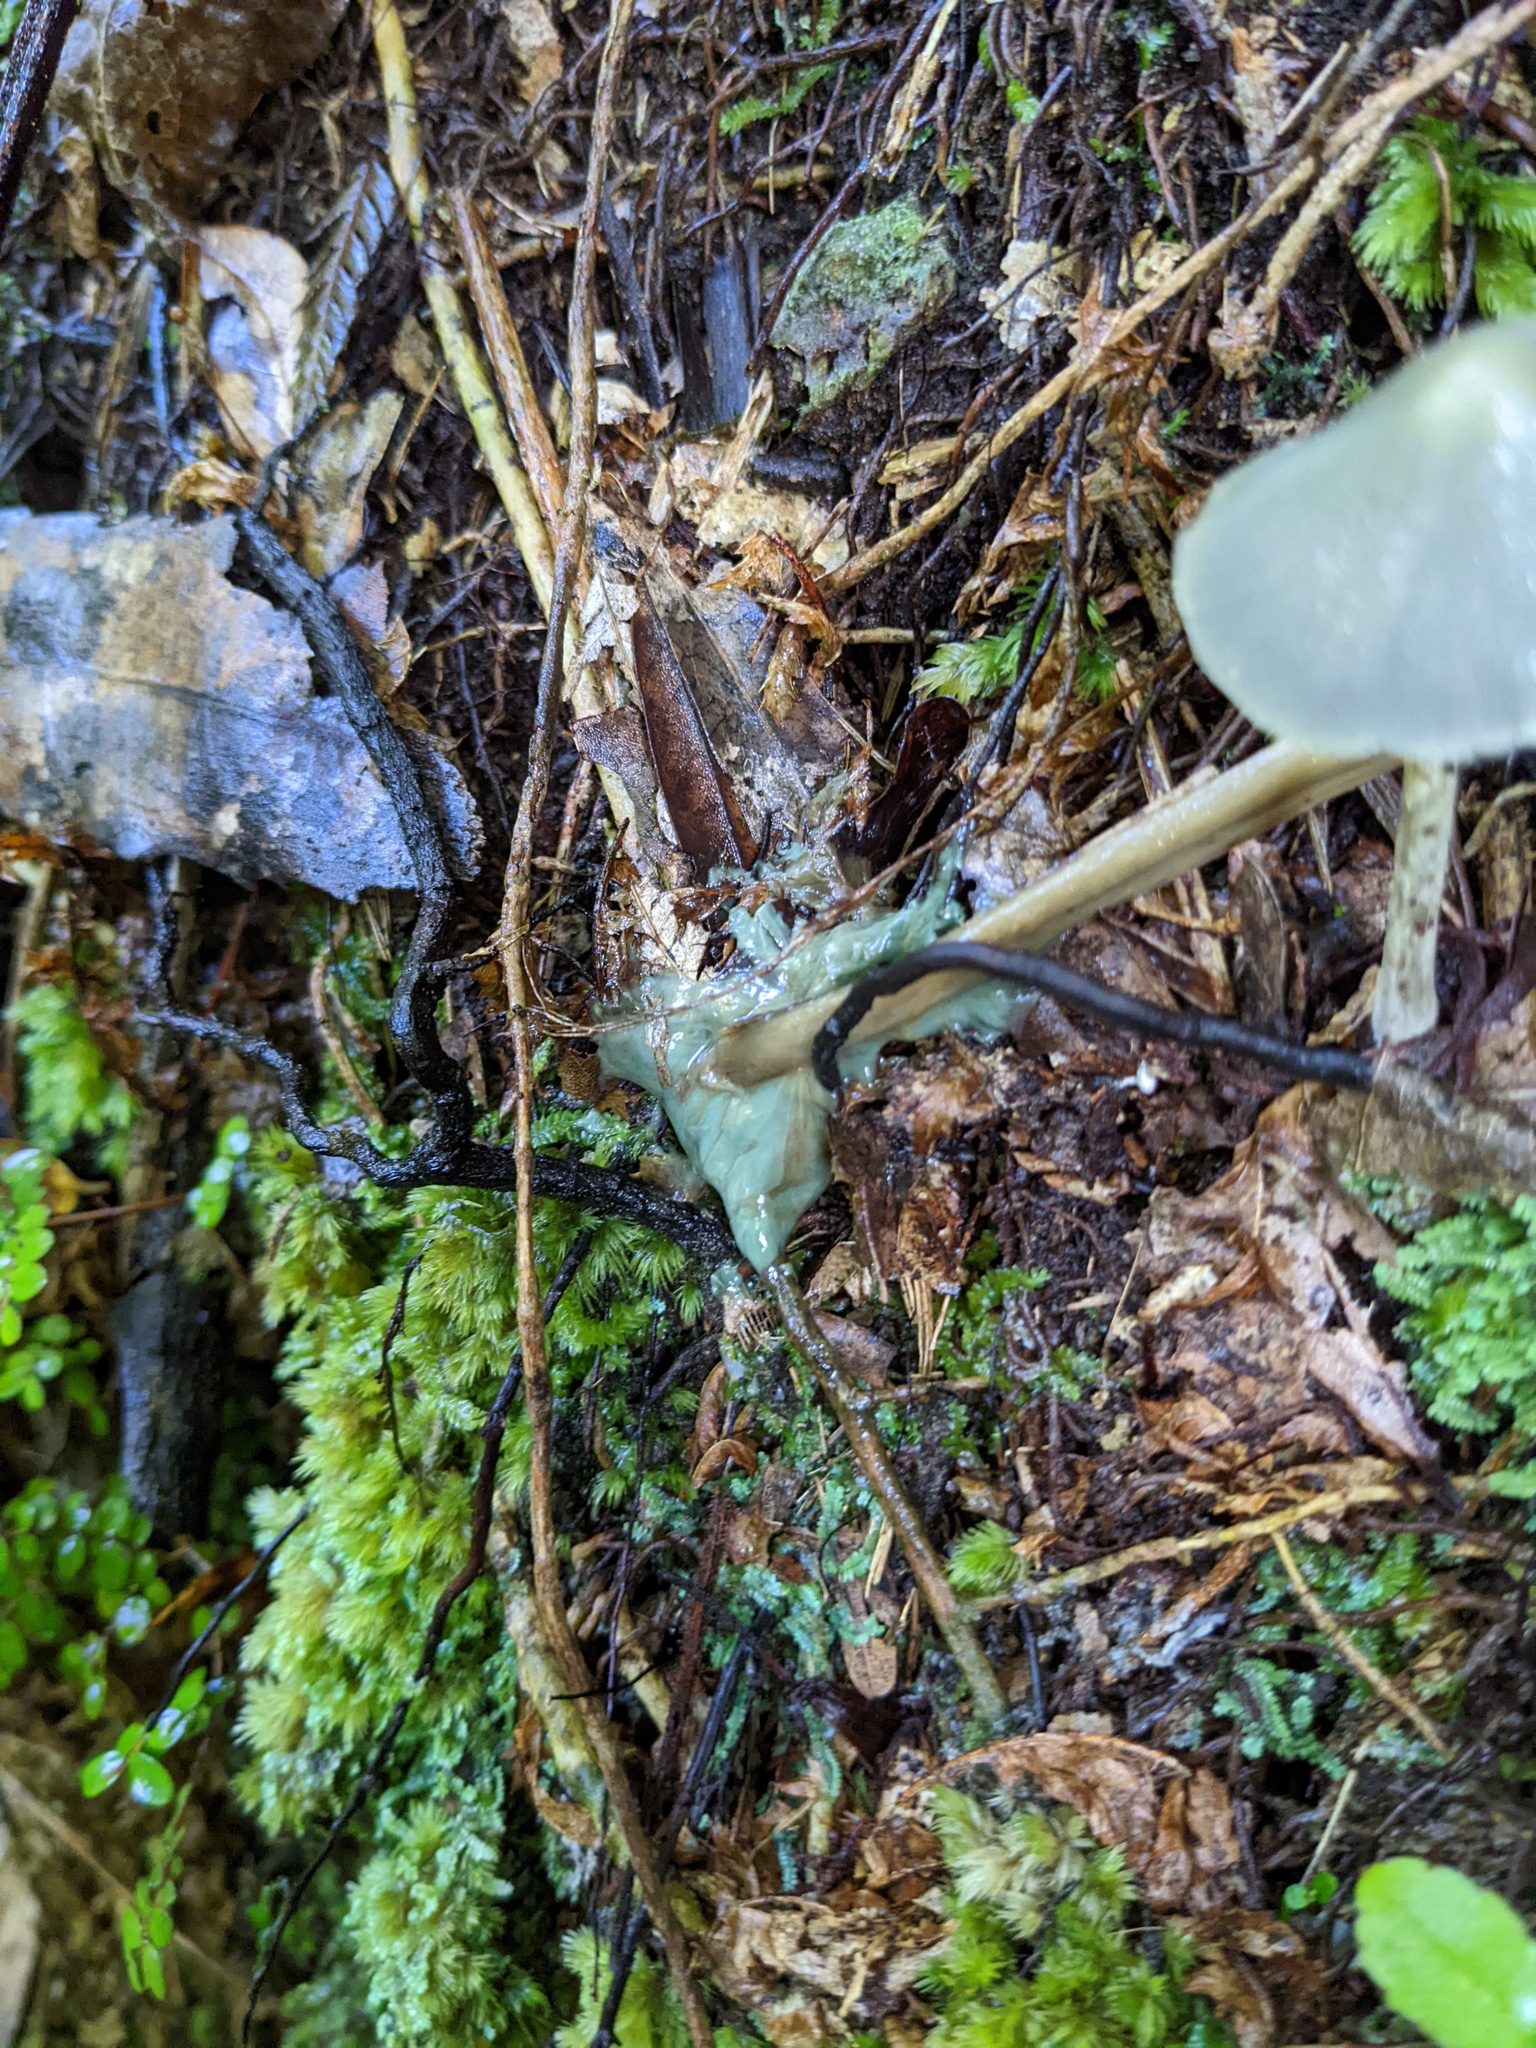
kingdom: Fungi
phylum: Basidiomycota
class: Agaricomycetes
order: Agaricales
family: Entolomataceae
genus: Entoloma
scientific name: Entoloma hochstetteri
